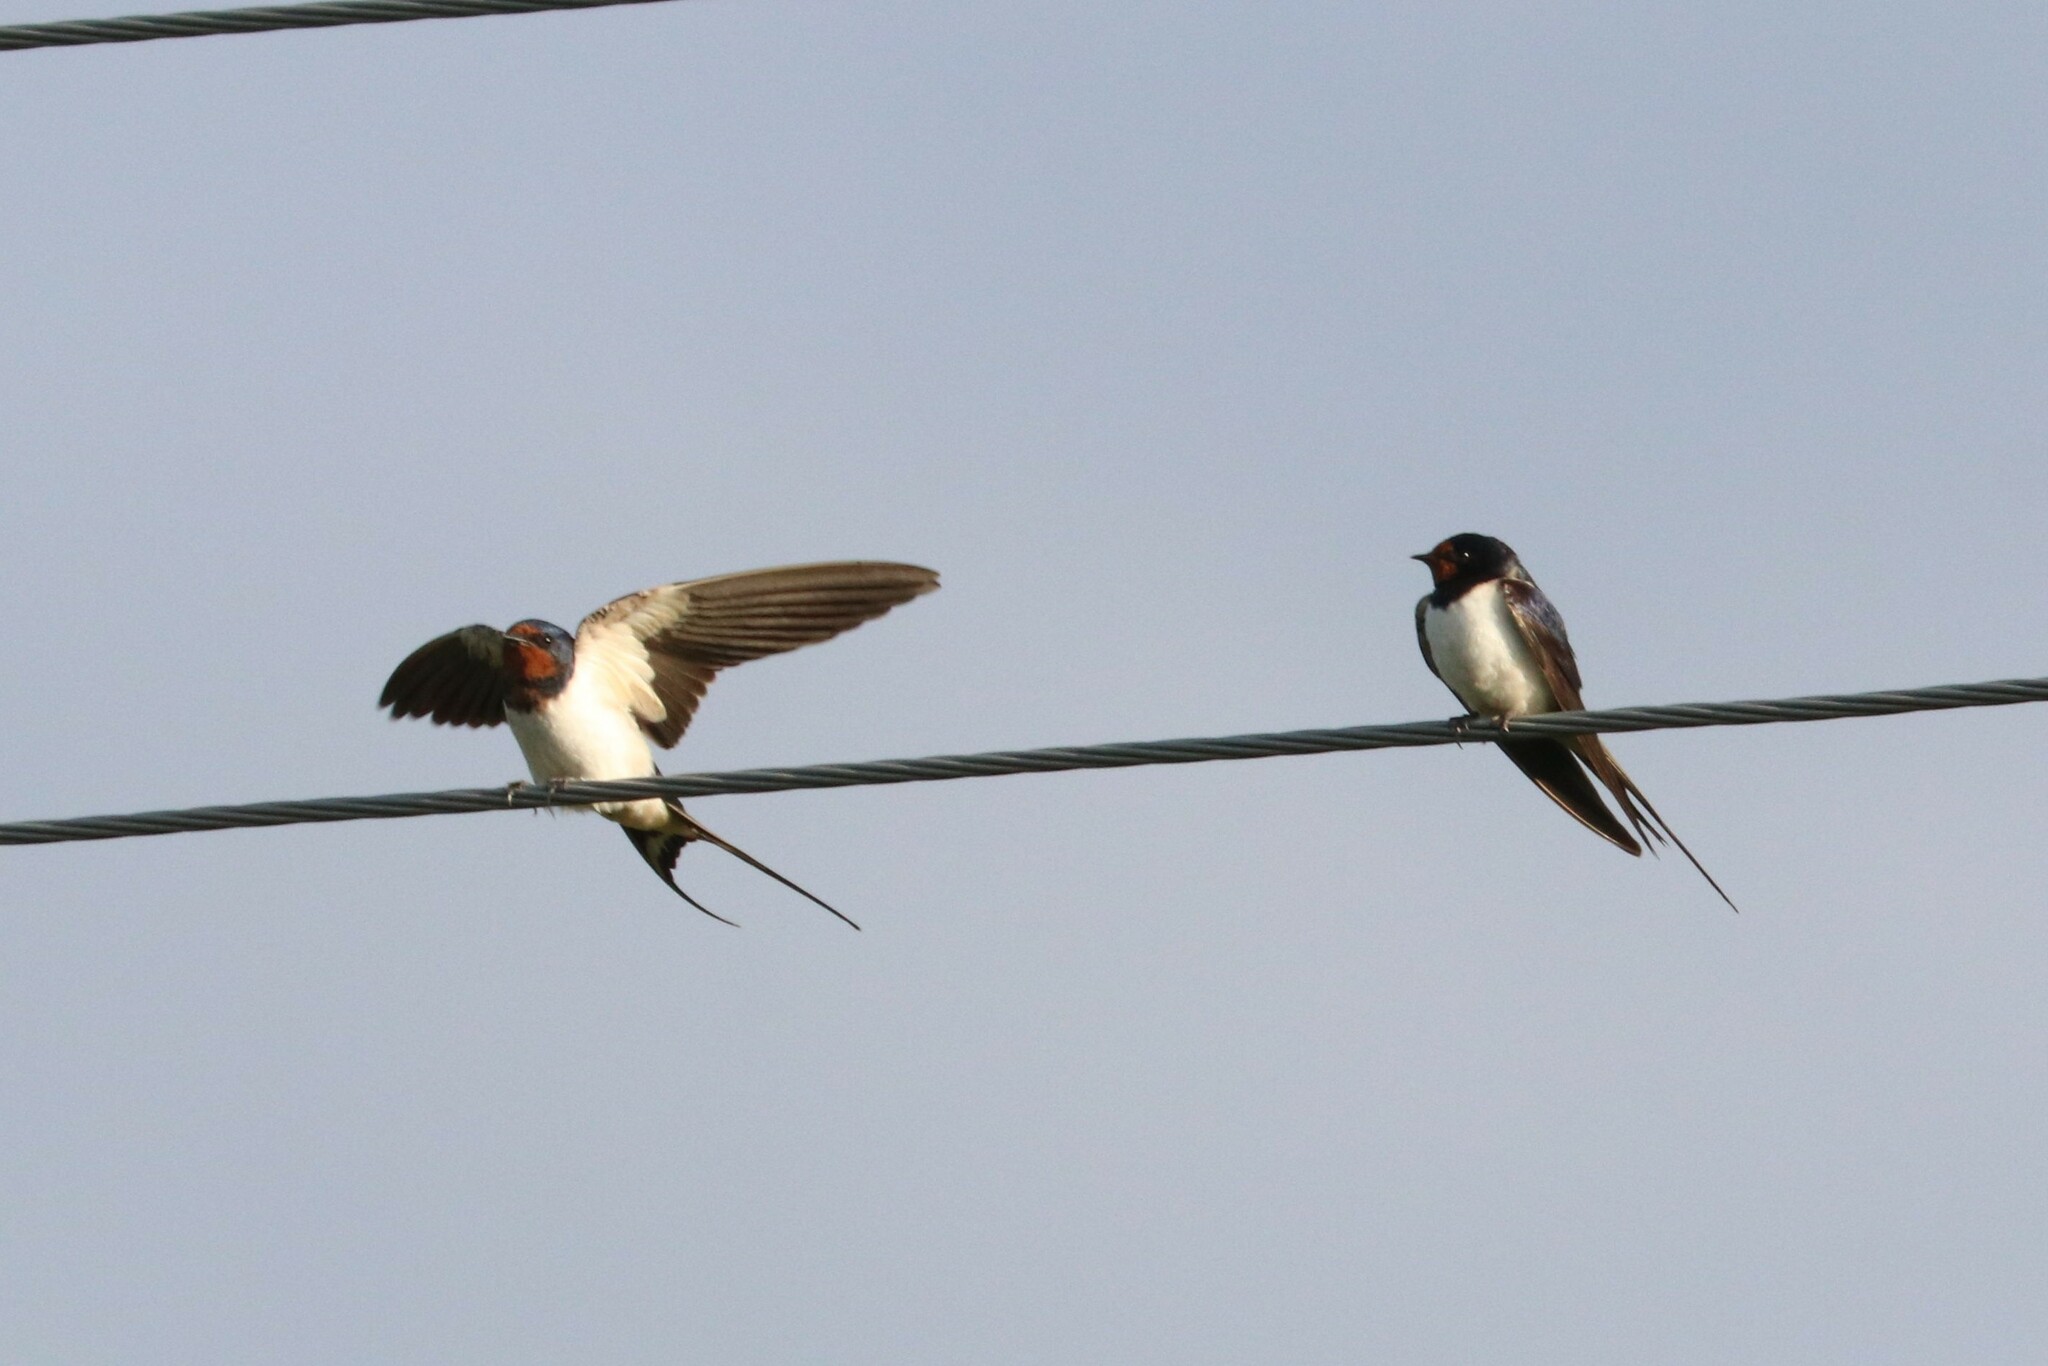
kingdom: Animalia
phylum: Chordata
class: Aves
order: Passeriformes
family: Hirundinidae
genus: Hirundo
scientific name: Hirundo rustica
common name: Barn swallow
